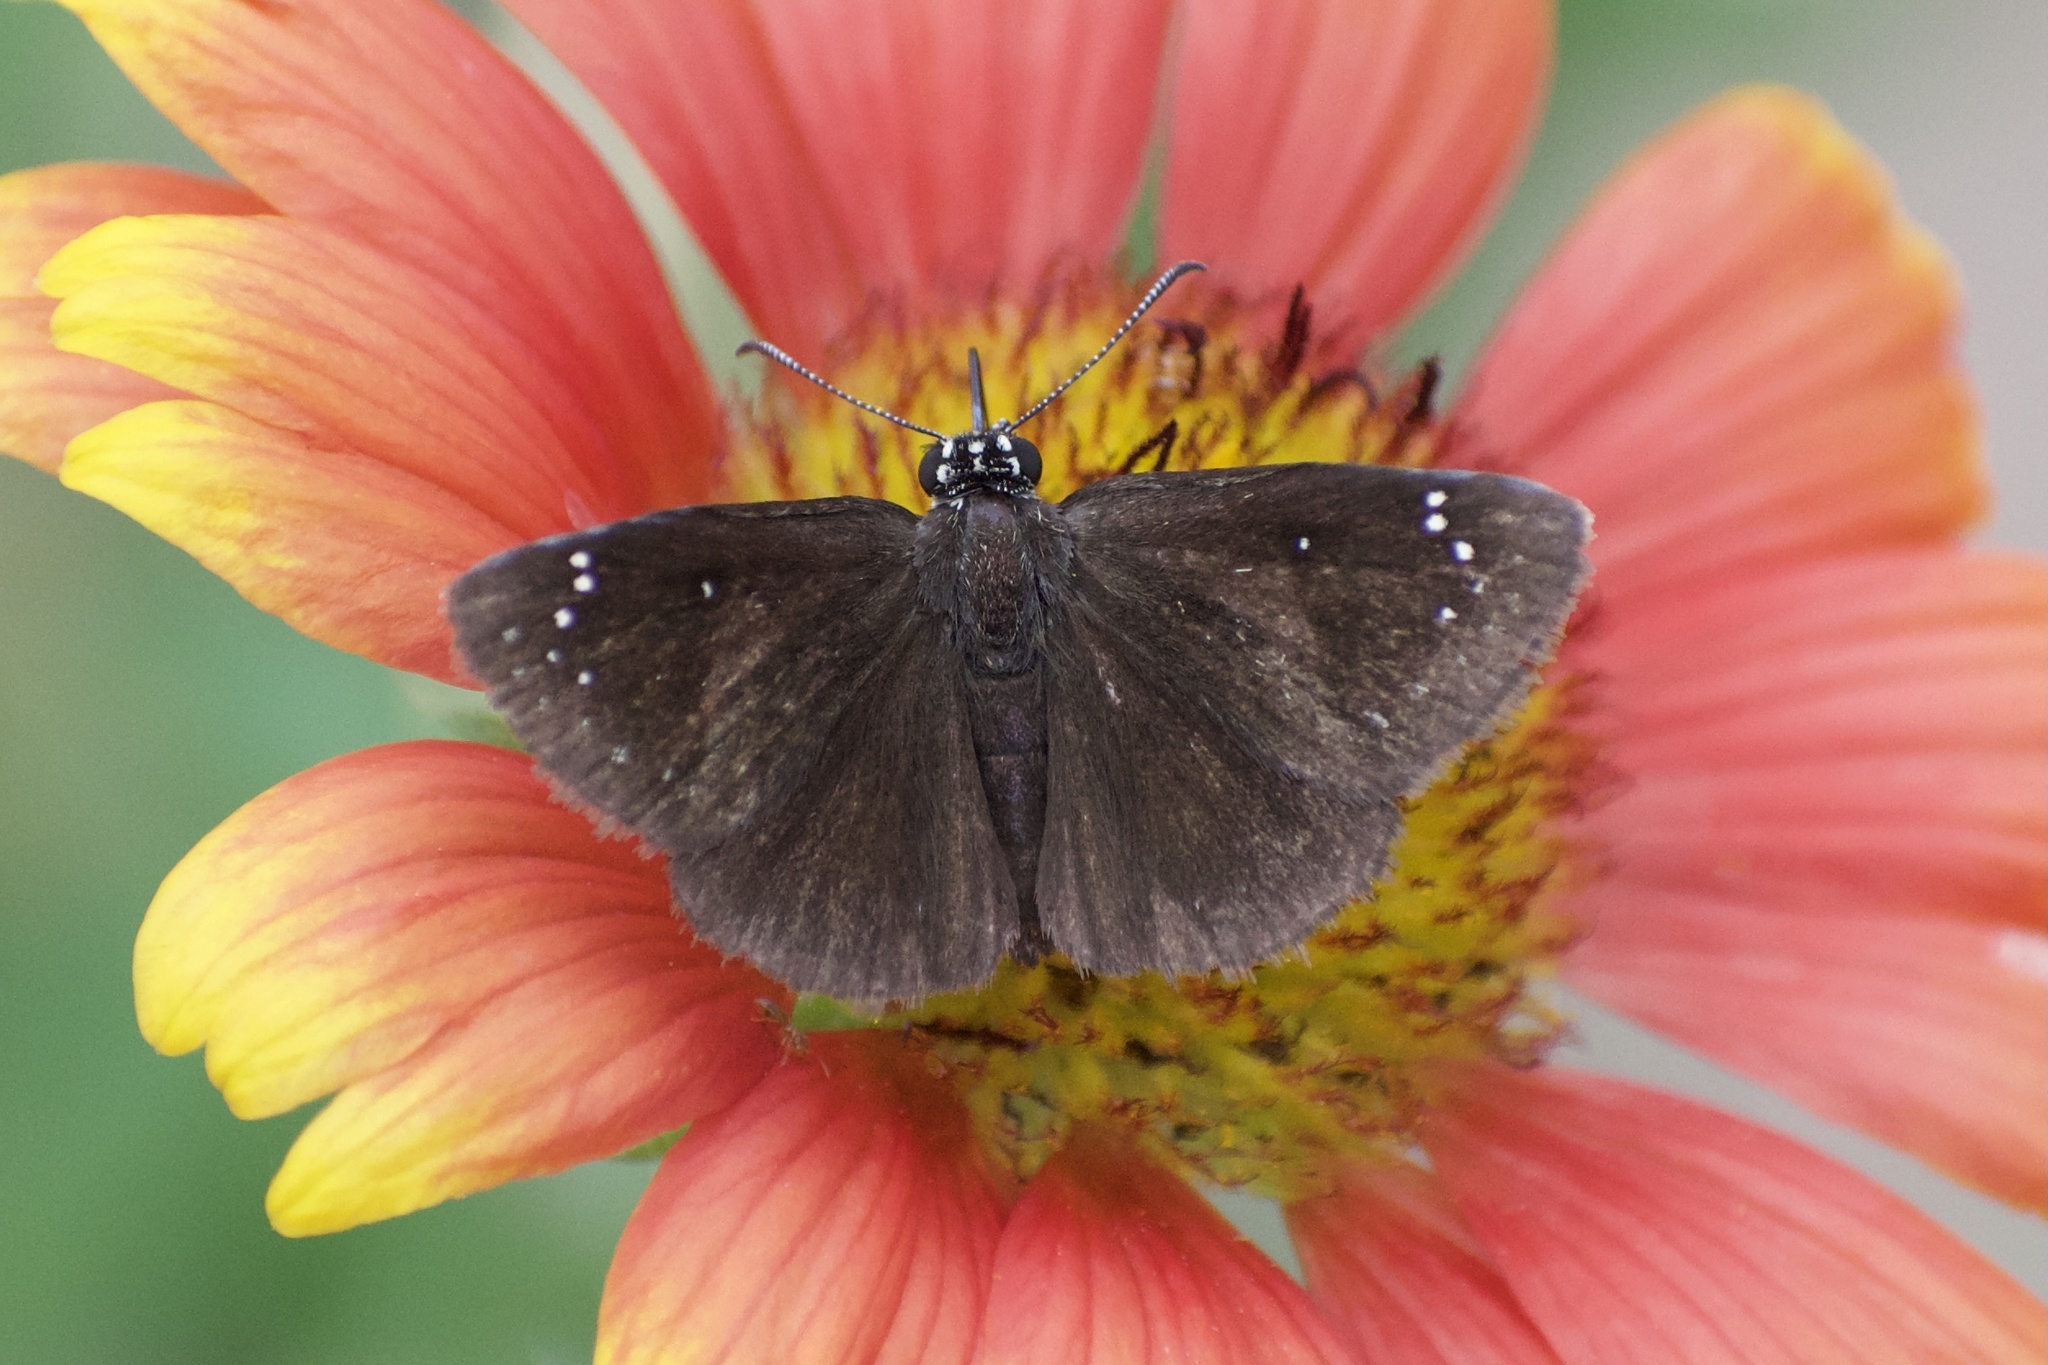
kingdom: Animalia
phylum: Arthropoda
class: Insecta
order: Lepidoptera
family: Hesperiidae
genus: Pholisora
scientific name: Pholisora catullus
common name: Common sootywing
